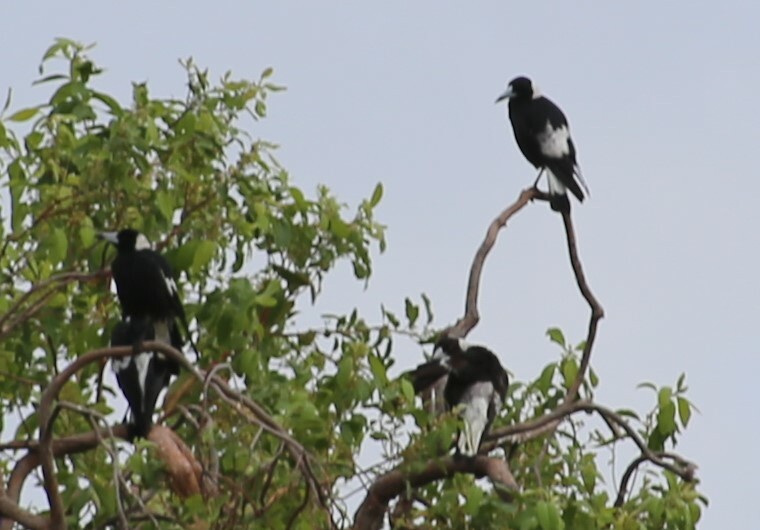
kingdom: Animalia
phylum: Chordata
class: Aves
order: Passeriformes
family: Cracticidae
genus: Gymnorhina
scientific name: Gymnorhina tibicen
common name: Australian magpie
